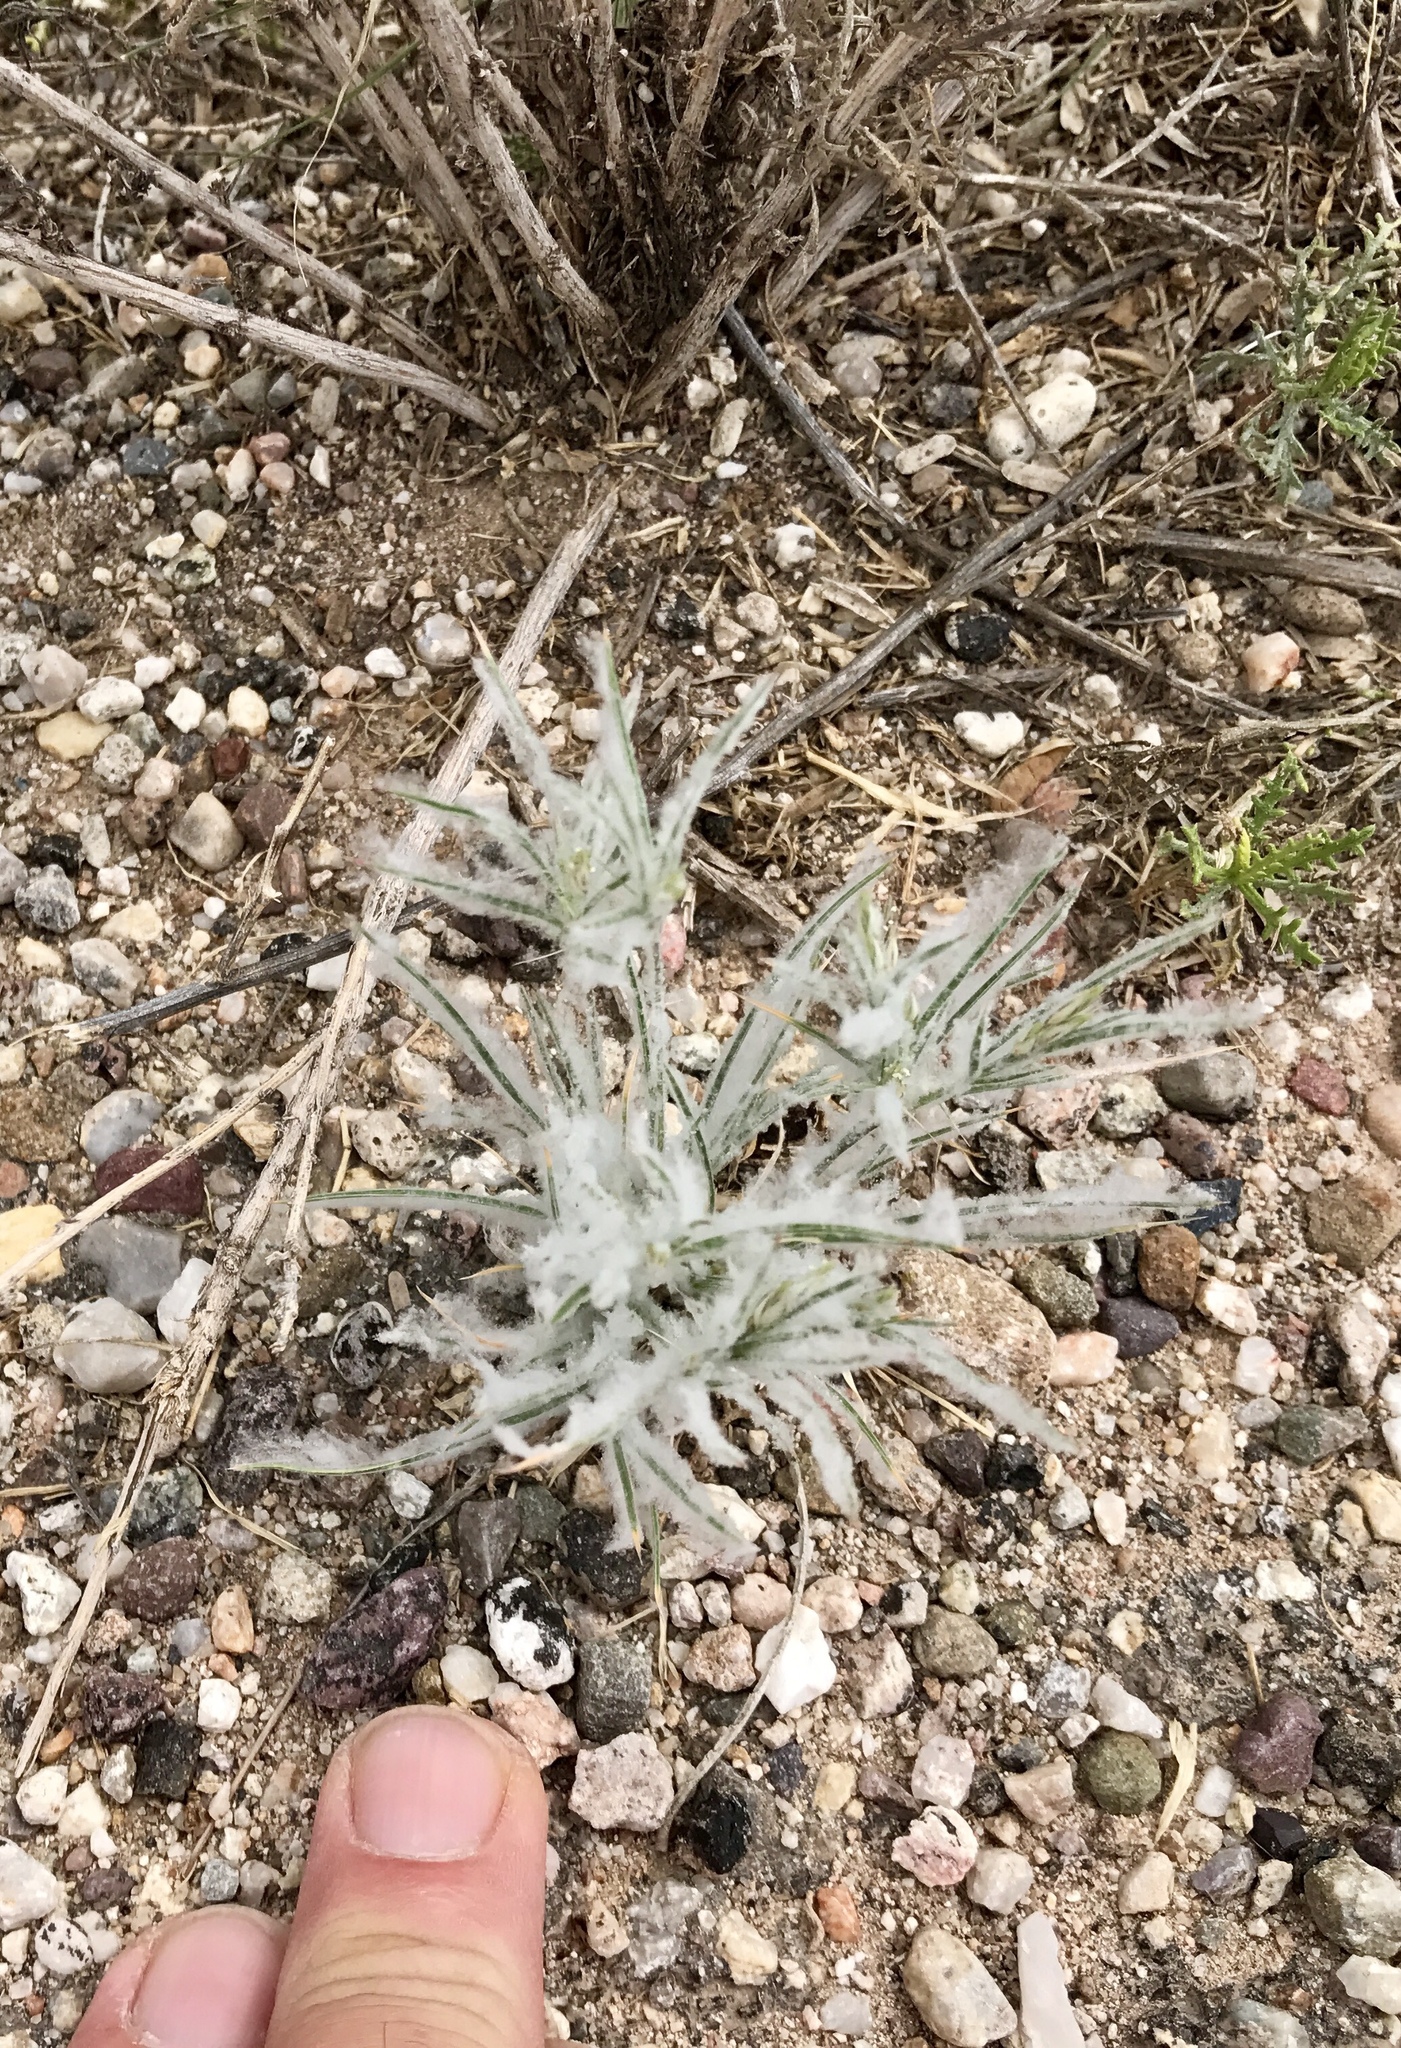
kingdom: Plantae
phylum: Tracheophyta
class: Liliopsida
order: Poales
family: Poaceae
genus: Dasyochloa
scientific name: Dasyochloa pulchella
